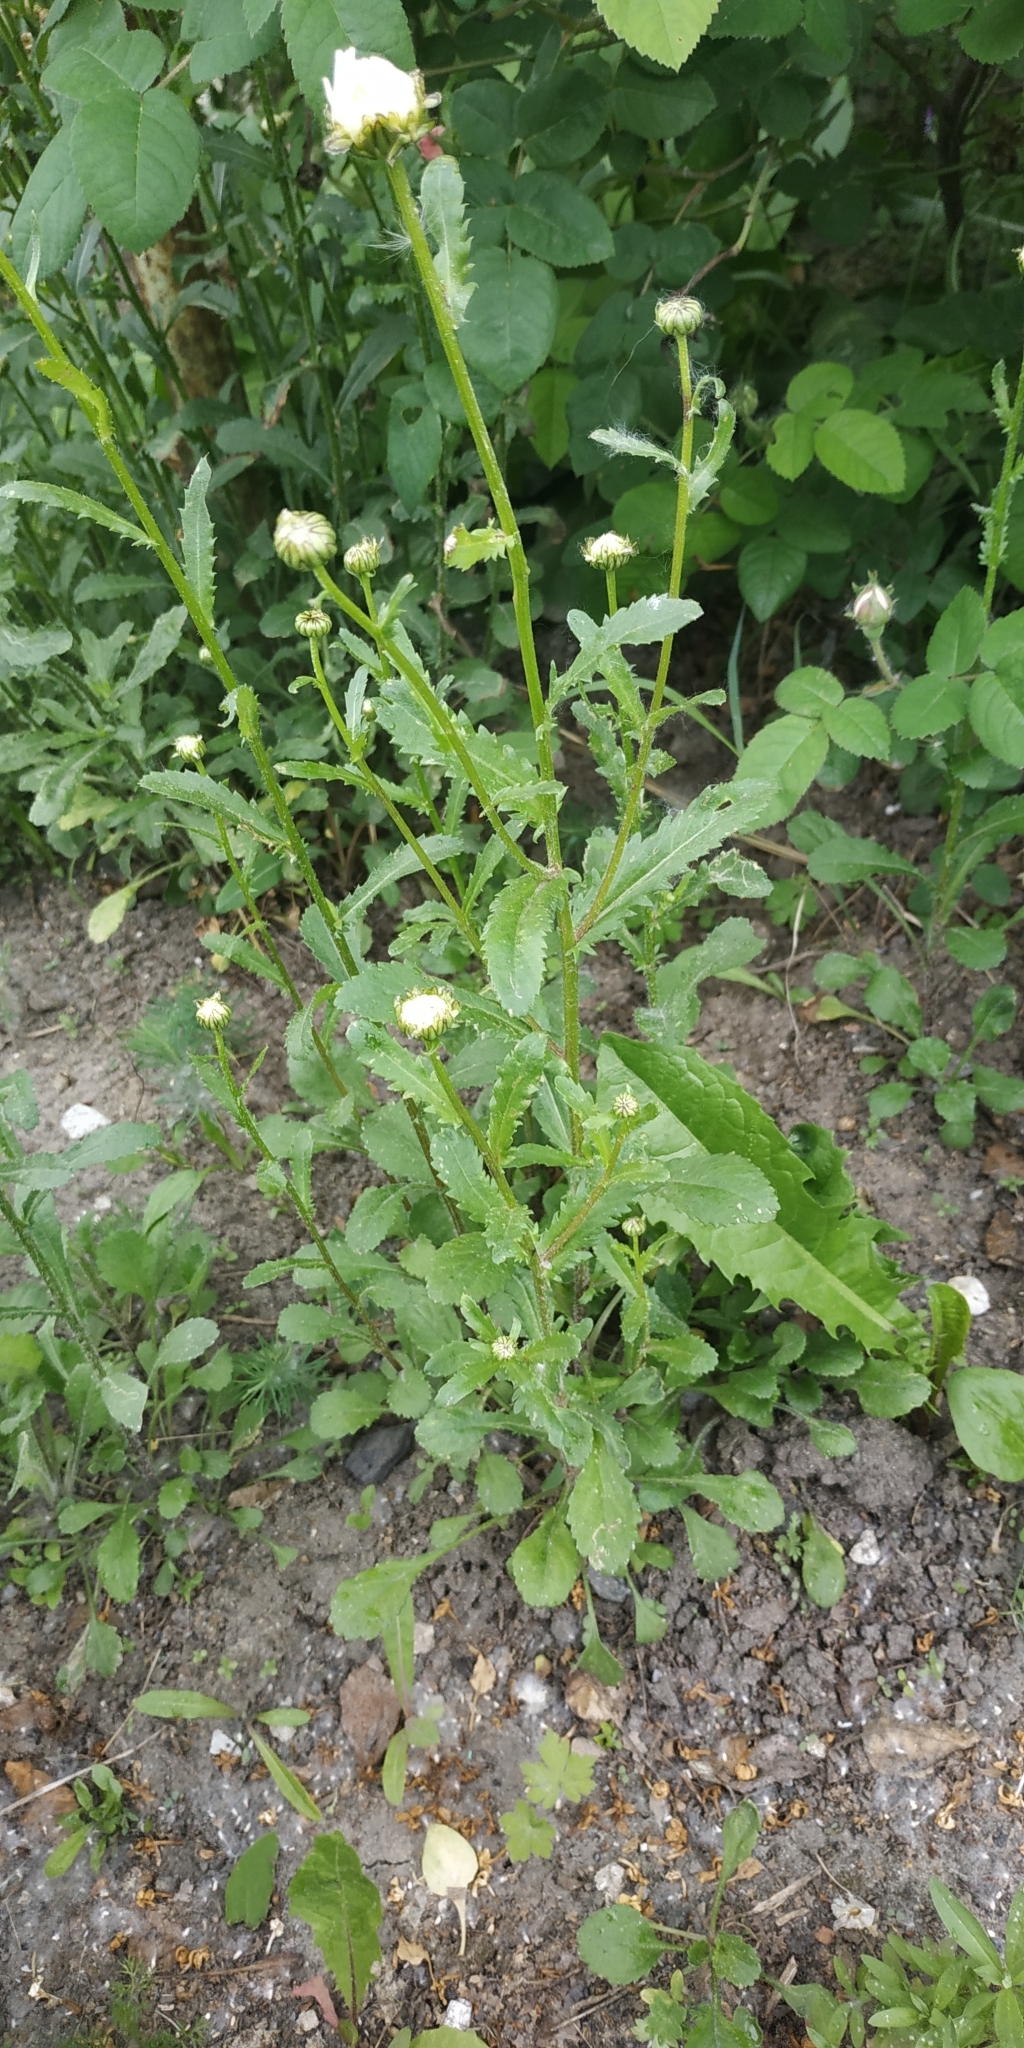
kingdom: Plantae
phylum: Tracheophyta
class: Magnoliopsida
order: Asterales
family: Asteraceae
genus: Leucanthemum
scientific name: Leucanthemum vulgare
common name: Oxeye daisy
